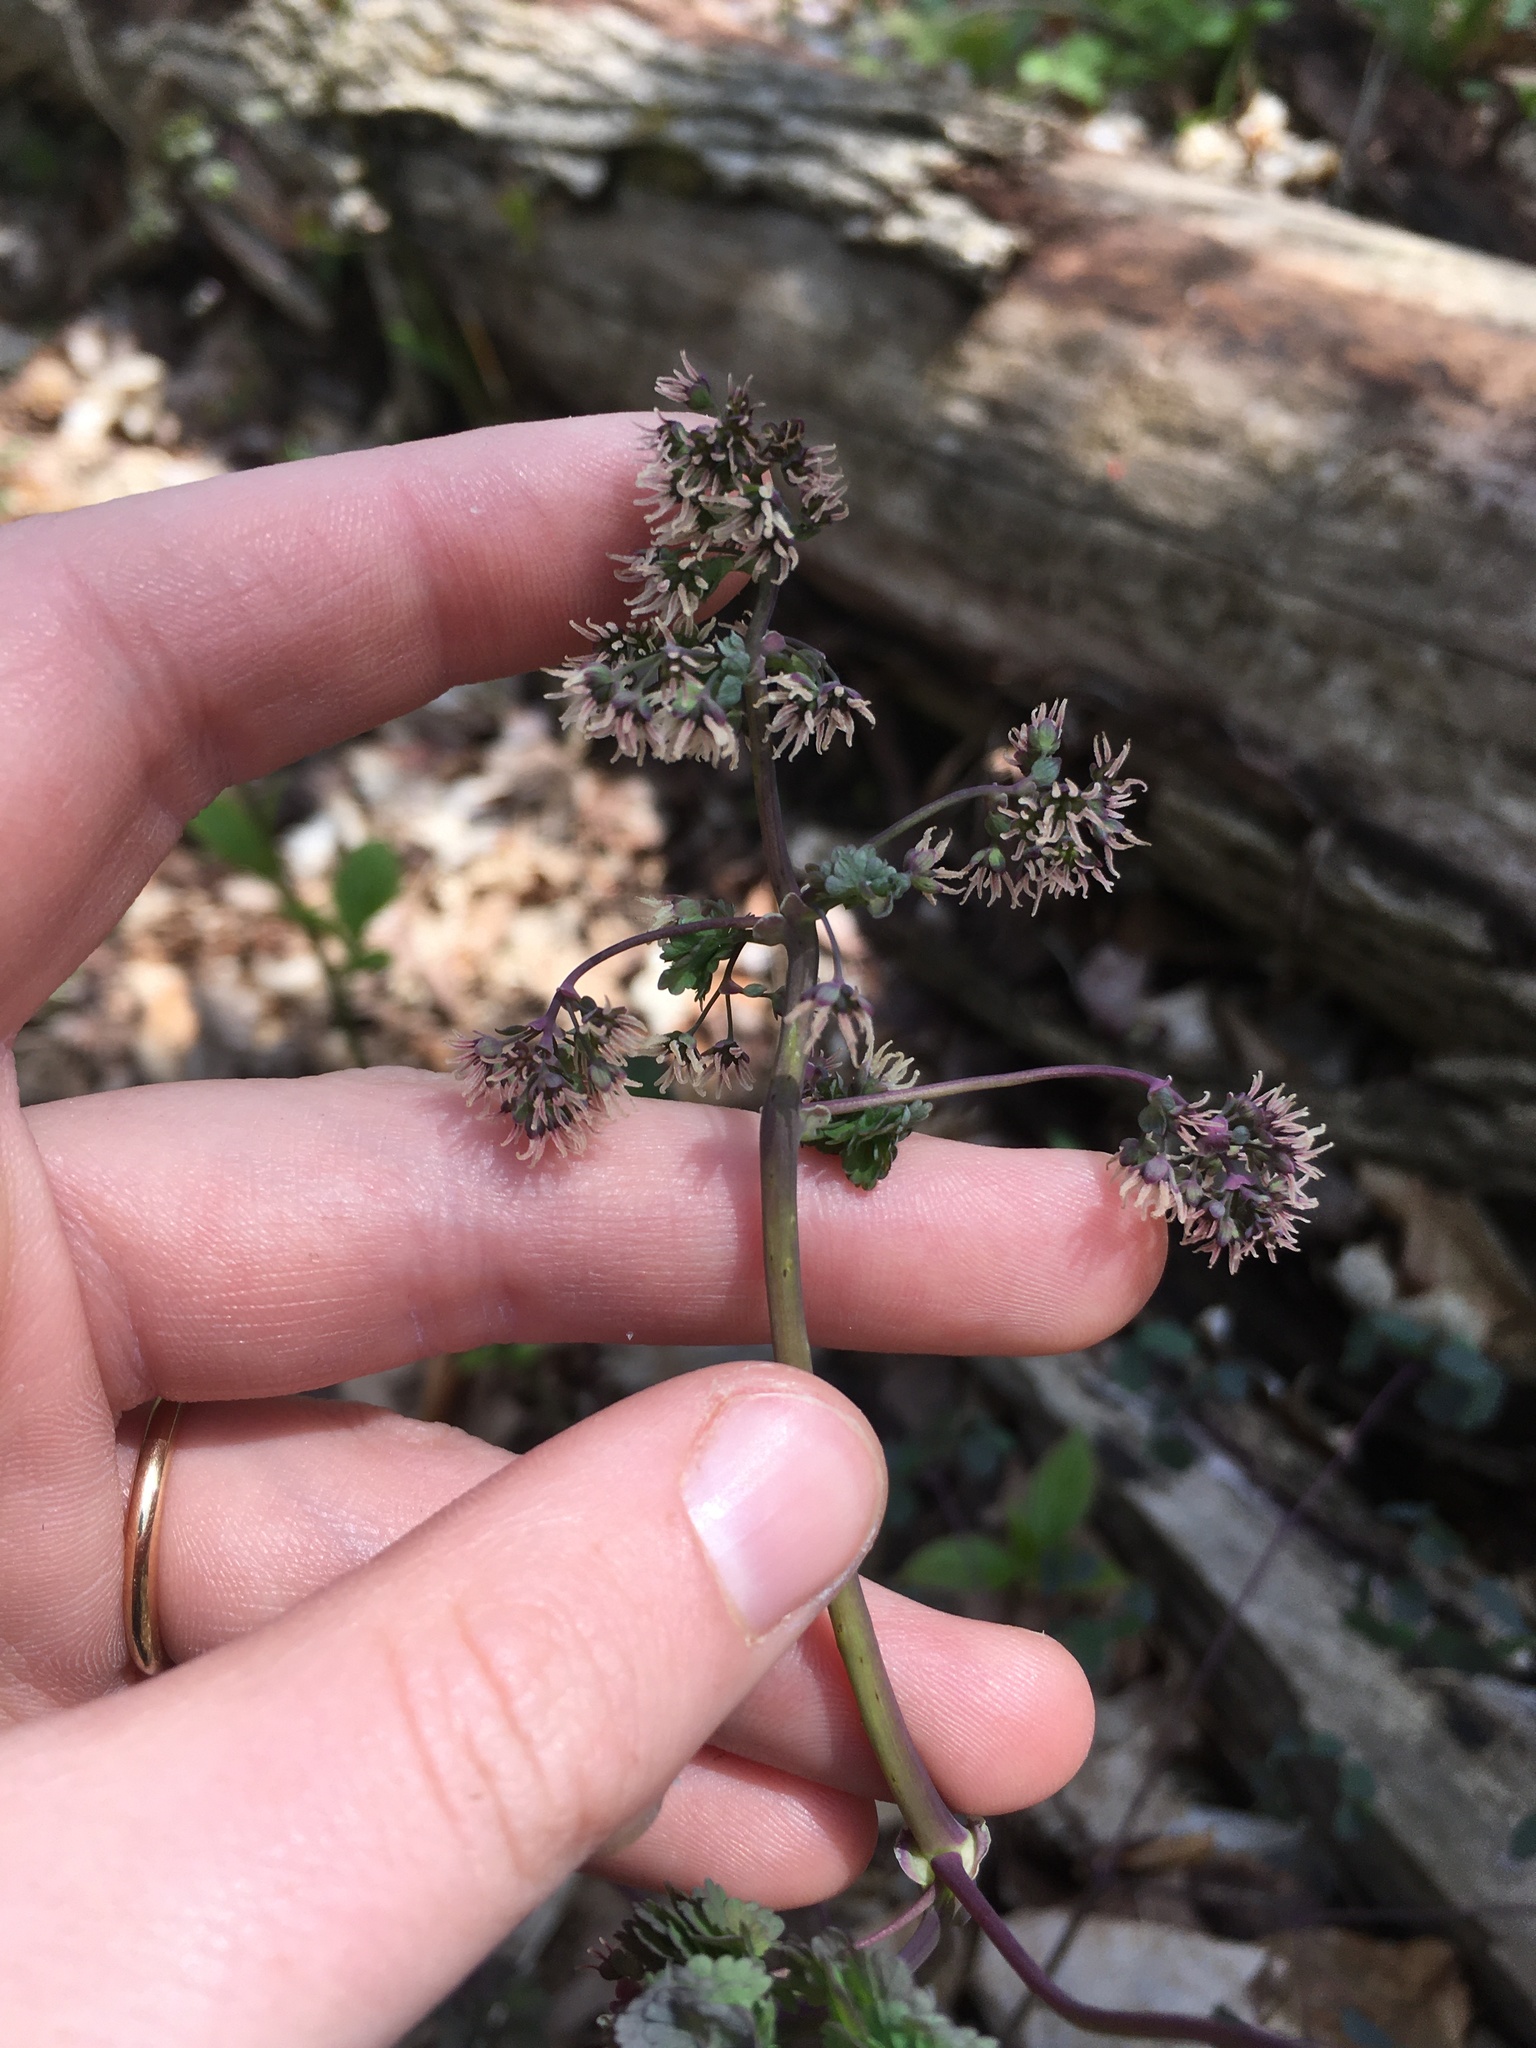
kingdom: Plantae
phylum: Tracheophyta
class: Magnoliopsida
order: Ranunculales
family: Ranunculaceae
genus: Thalictrum
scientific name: Thalictrum dioicum
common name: Early meadow-rue
